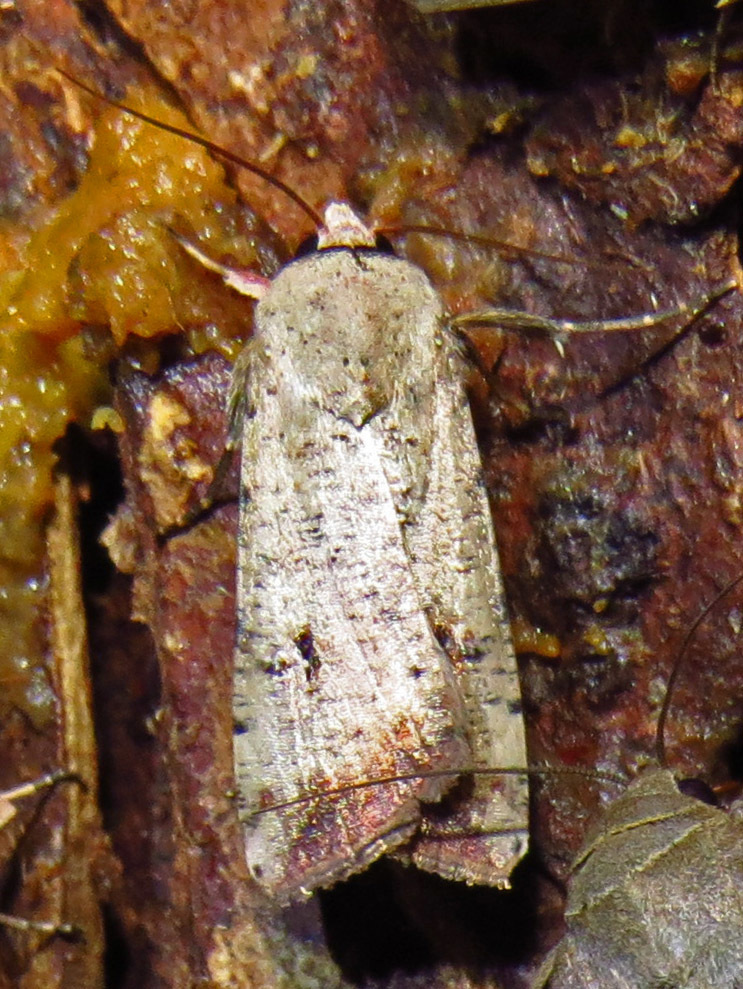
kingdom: Animalia
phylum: Arthropoda
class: Insecta
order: Lepidoptera
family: Noctuidae
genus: Anicla
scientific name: Anicla infecta
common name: Green cutworm
